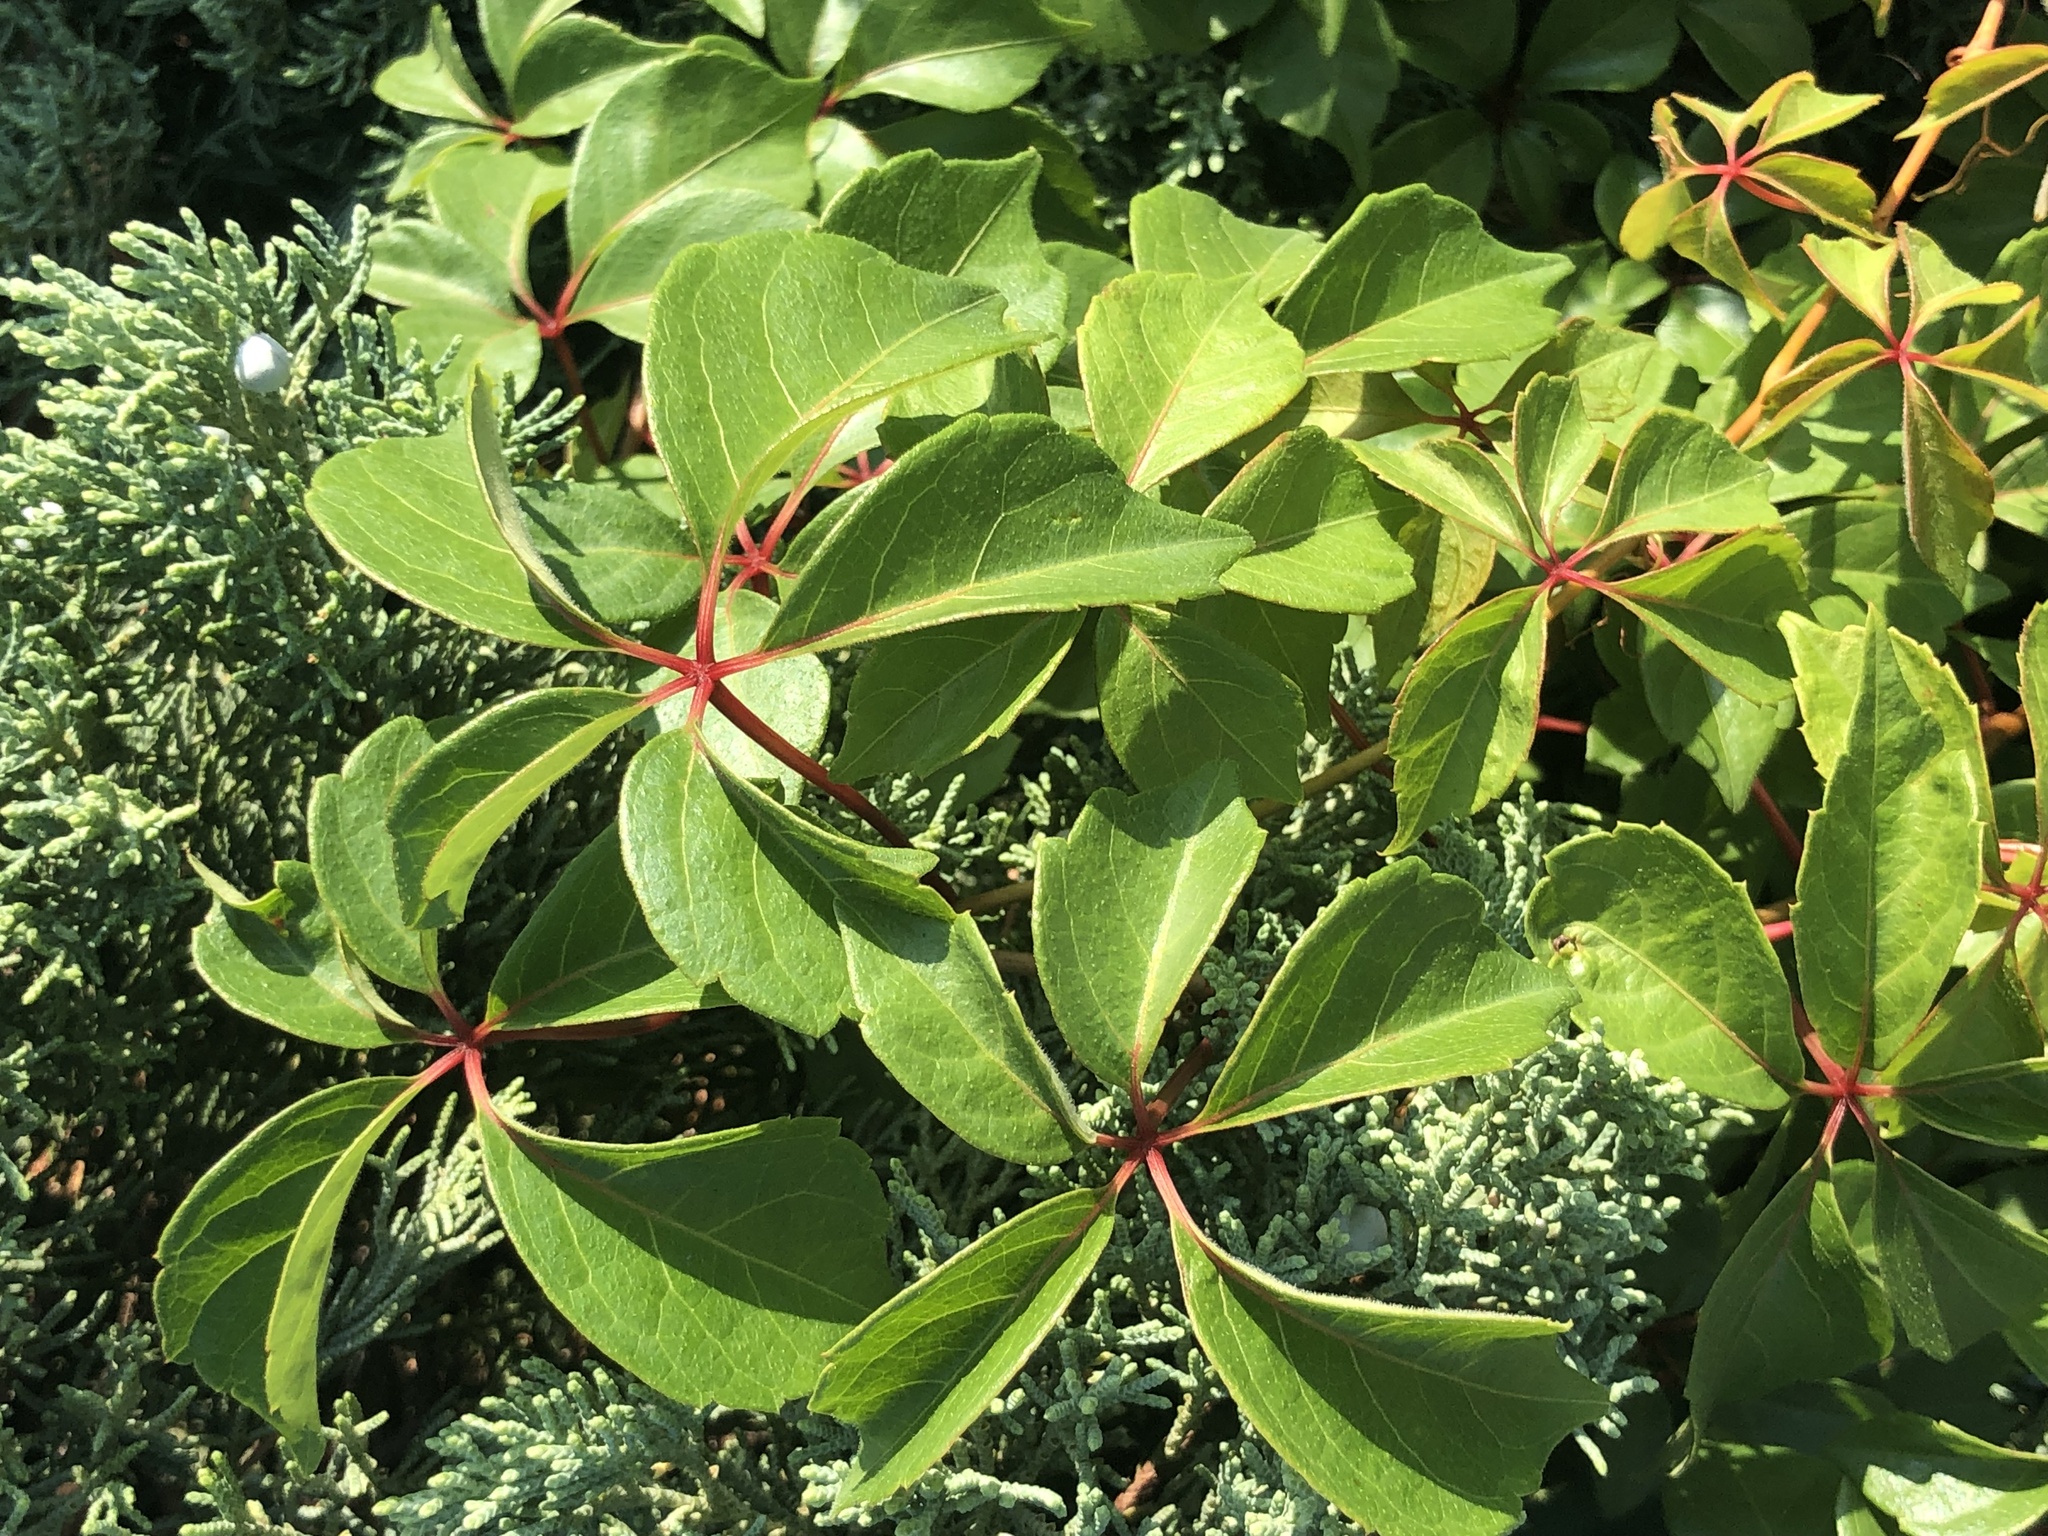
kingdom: Plantae
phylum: Tracheophyta
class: Magnoliopsida
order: Vitales
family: Vitaceae
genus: Parthenocissus
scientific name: Parthenocissus quinquefolia
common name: Virginia-creeper
